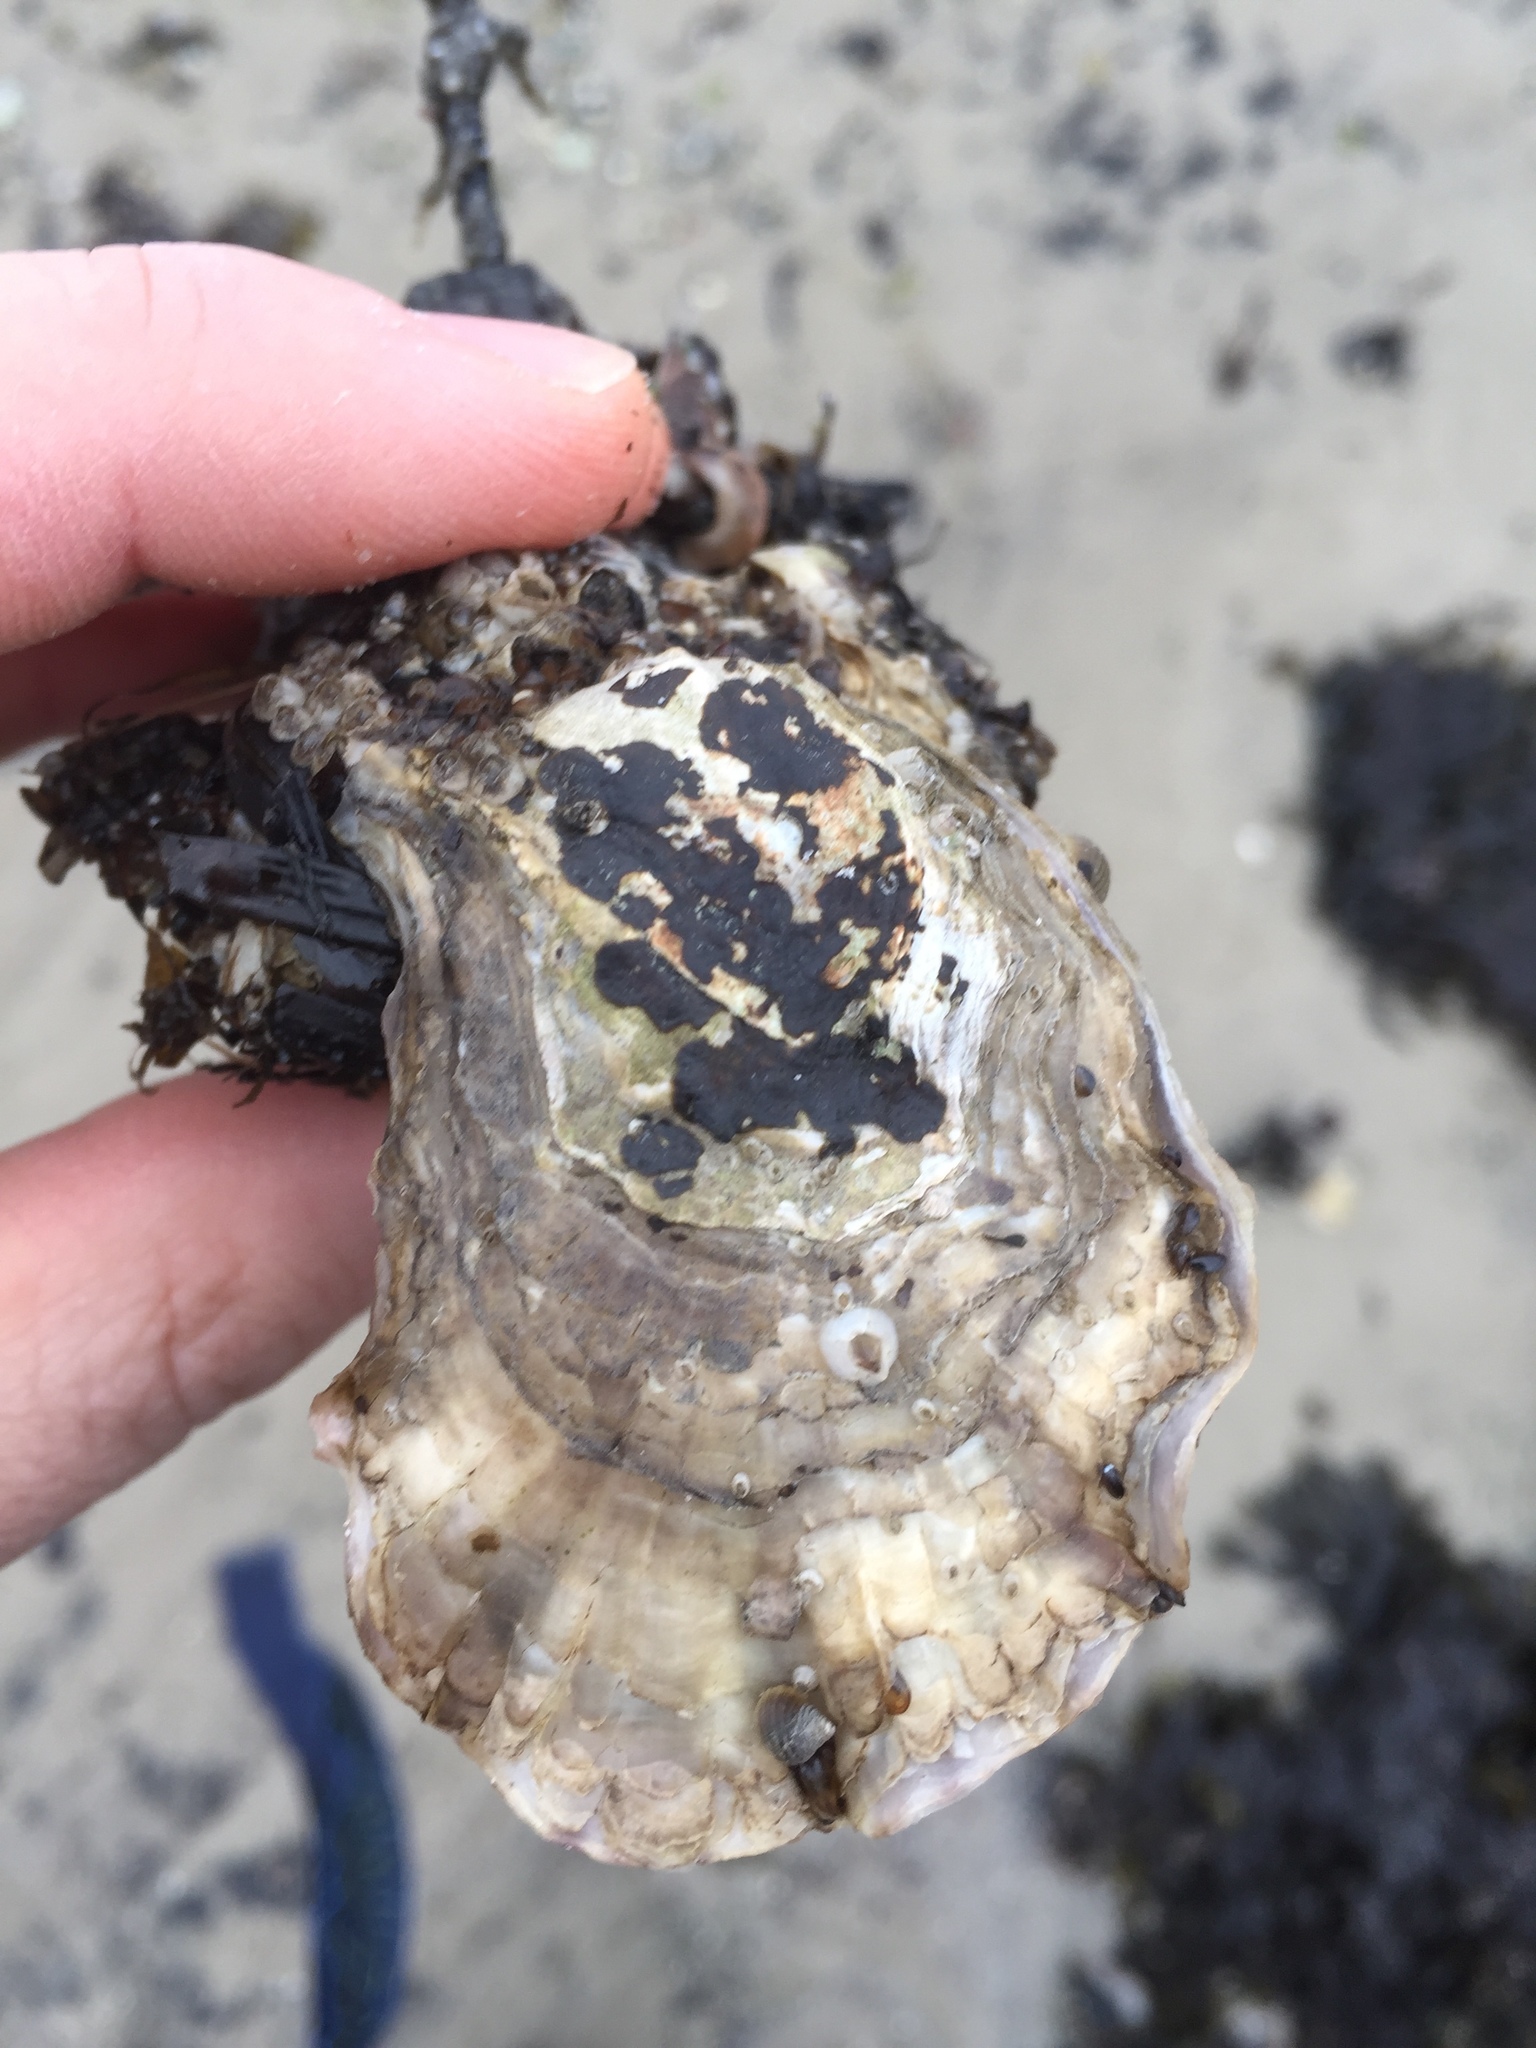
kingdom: Animalia
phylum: Mollusca
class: Bivalvia
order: Ostreida
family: Ostreidae
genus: Magallana
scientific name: Magallana gigas
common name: Pacific oyster
